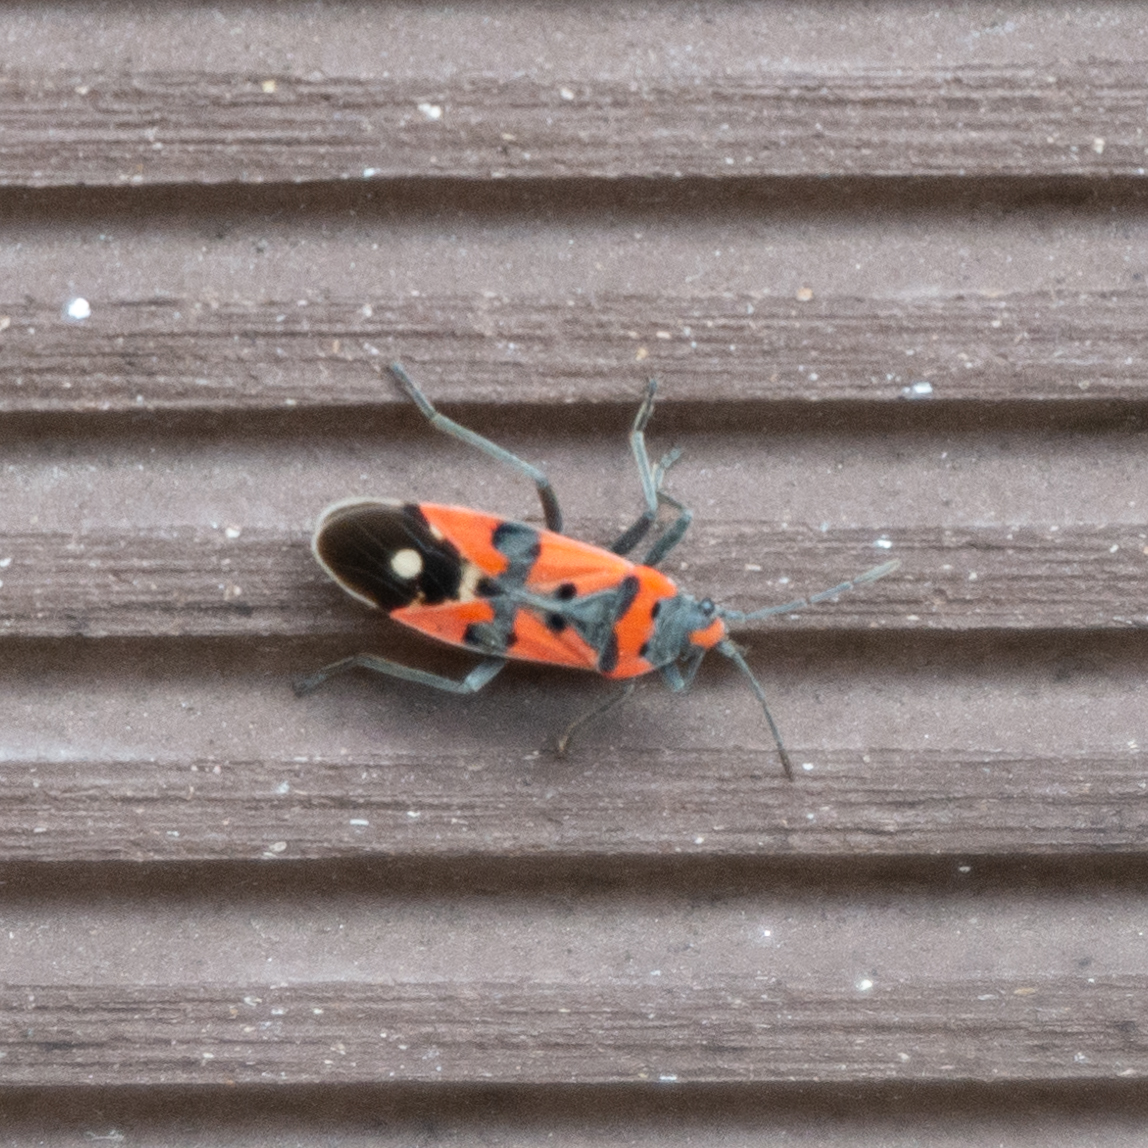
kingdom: Animalia
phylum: Arthropoda
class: Insecta
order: Hemiptera
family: Lygaeidae
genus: Lygaeus
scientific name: Lygaeus equestris
